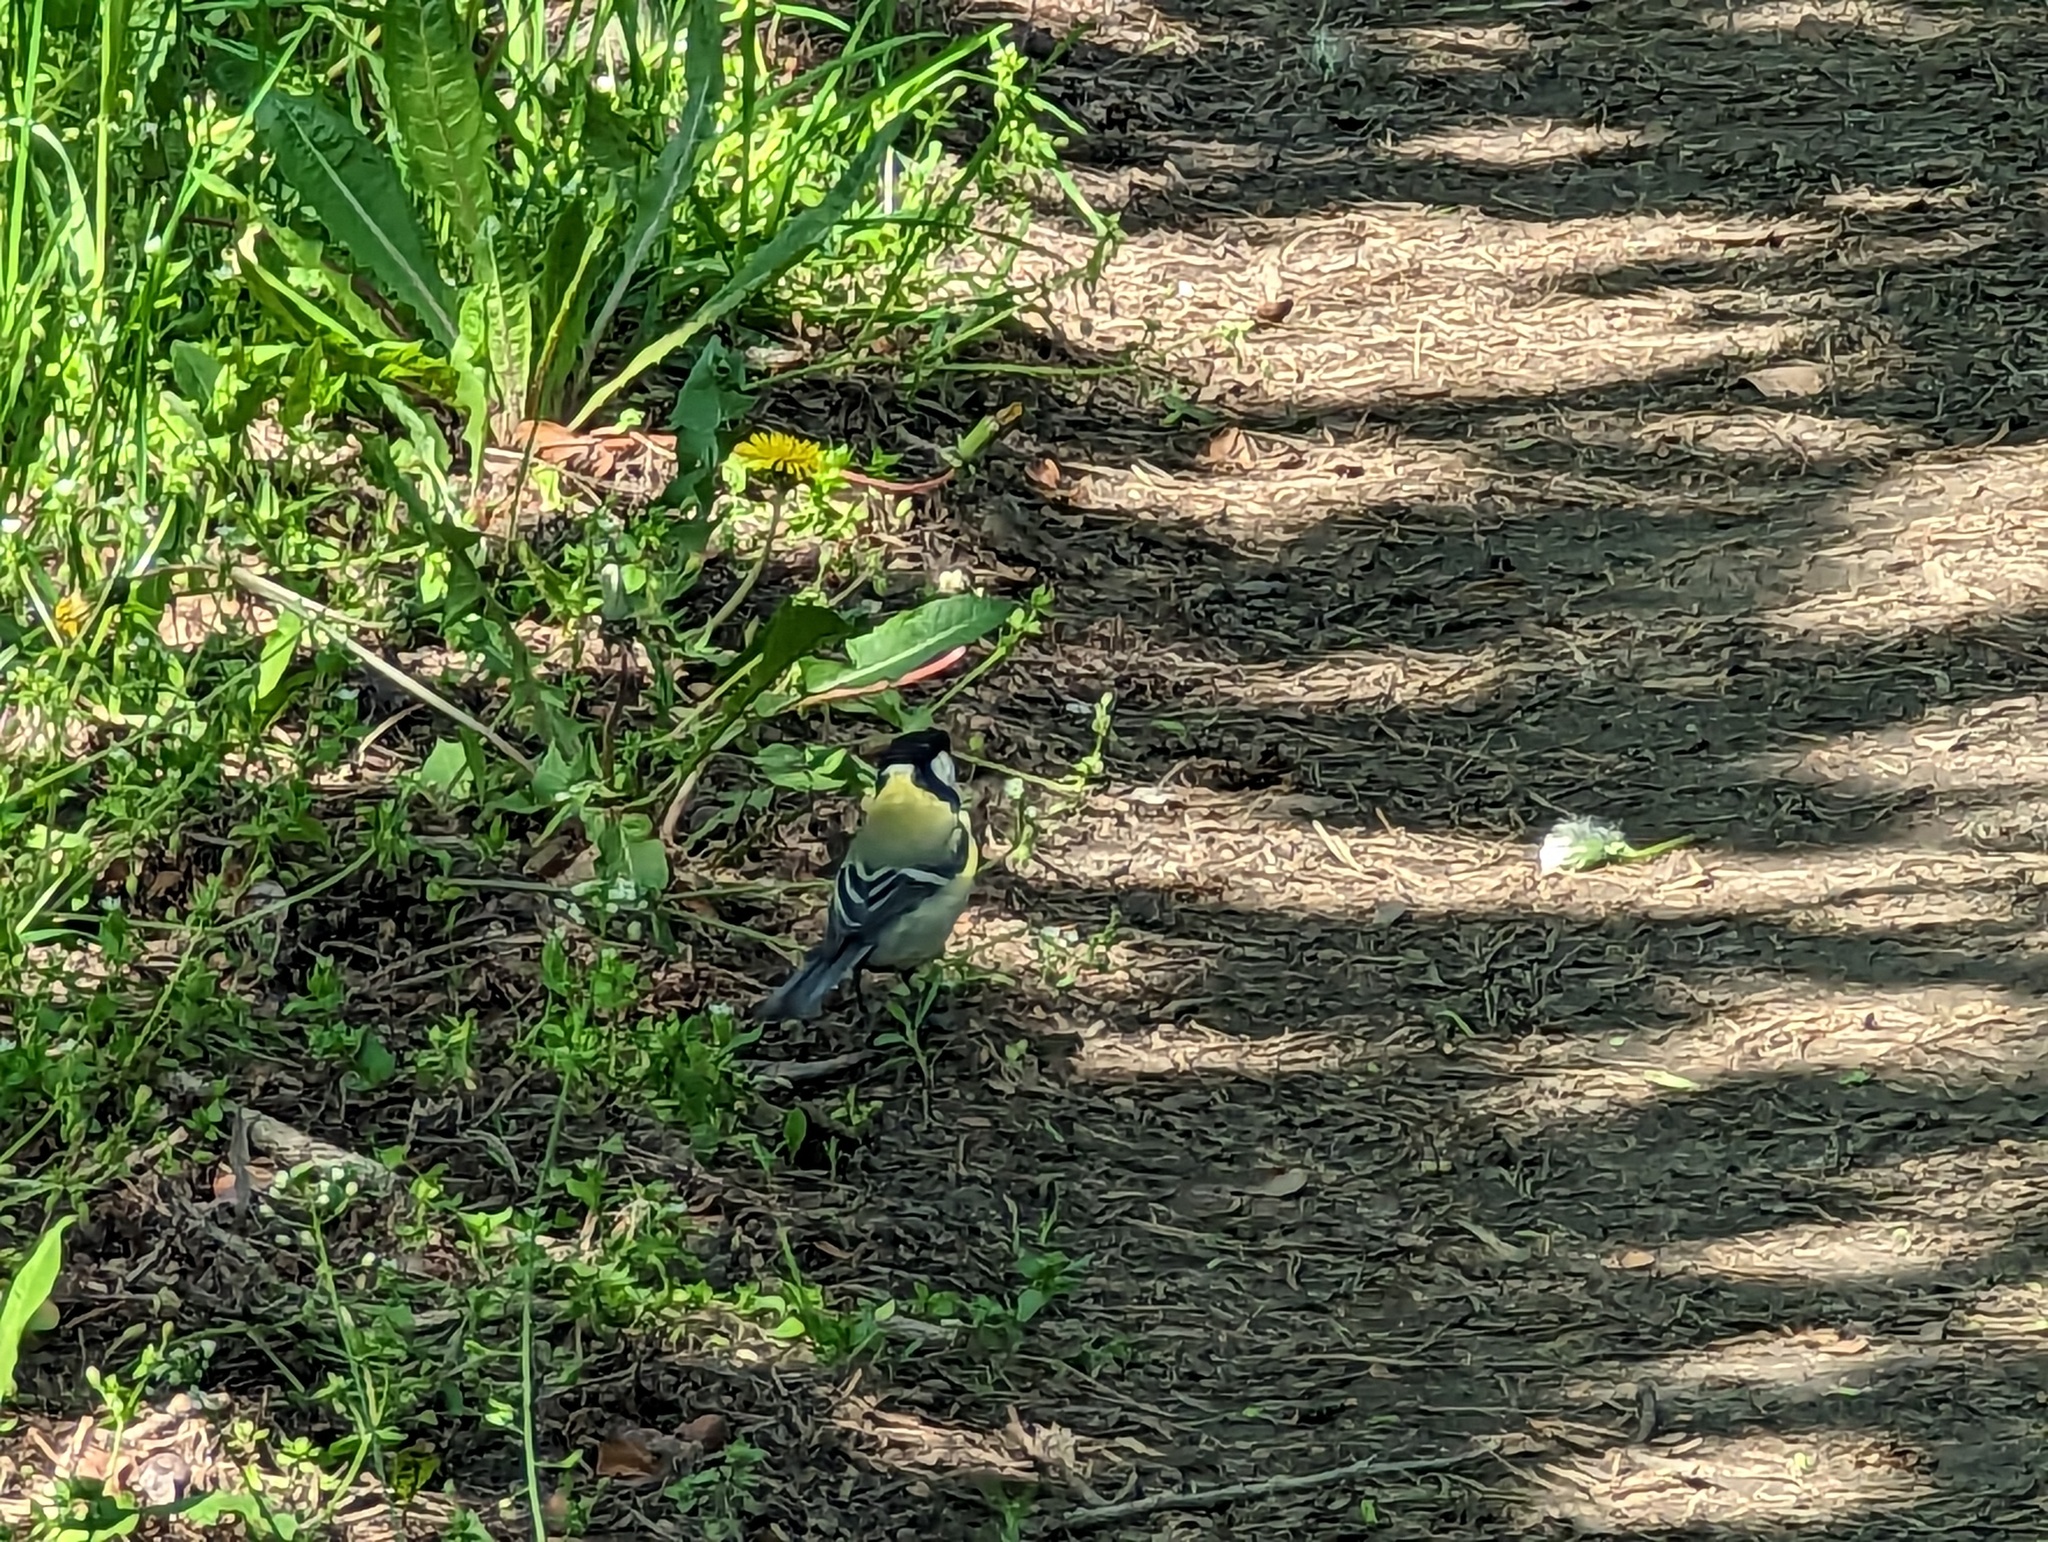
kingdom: Animalia
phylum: Chordata
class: Aves
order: Passeriformes
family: Paridae
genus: Parus
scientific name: Parus major
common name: Great tit
